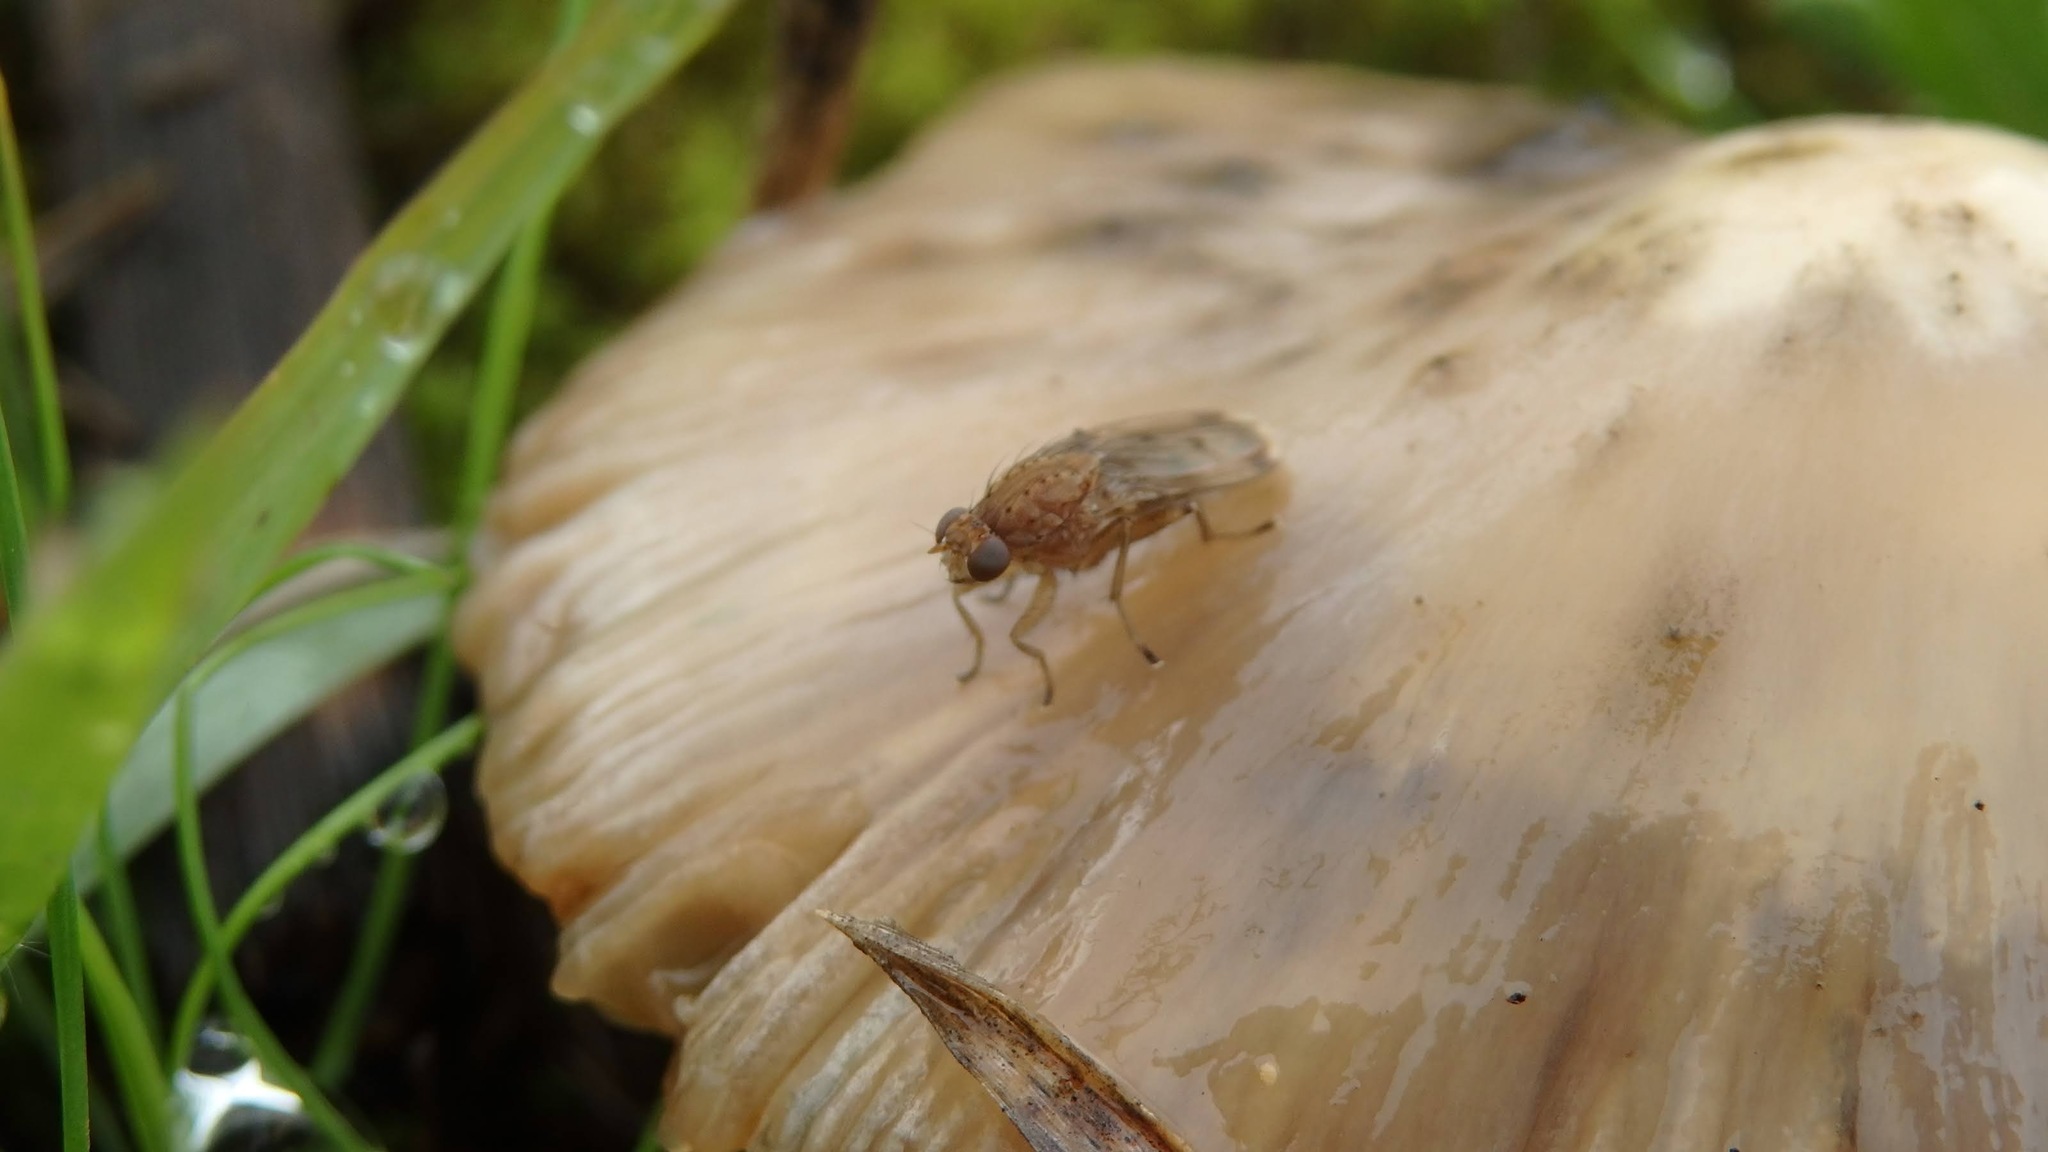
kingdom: Animalia
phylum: Arthropoda
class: Insecta
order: Diptera
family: Heleomyzidae
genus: Suillia
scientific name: Suillia variegata
